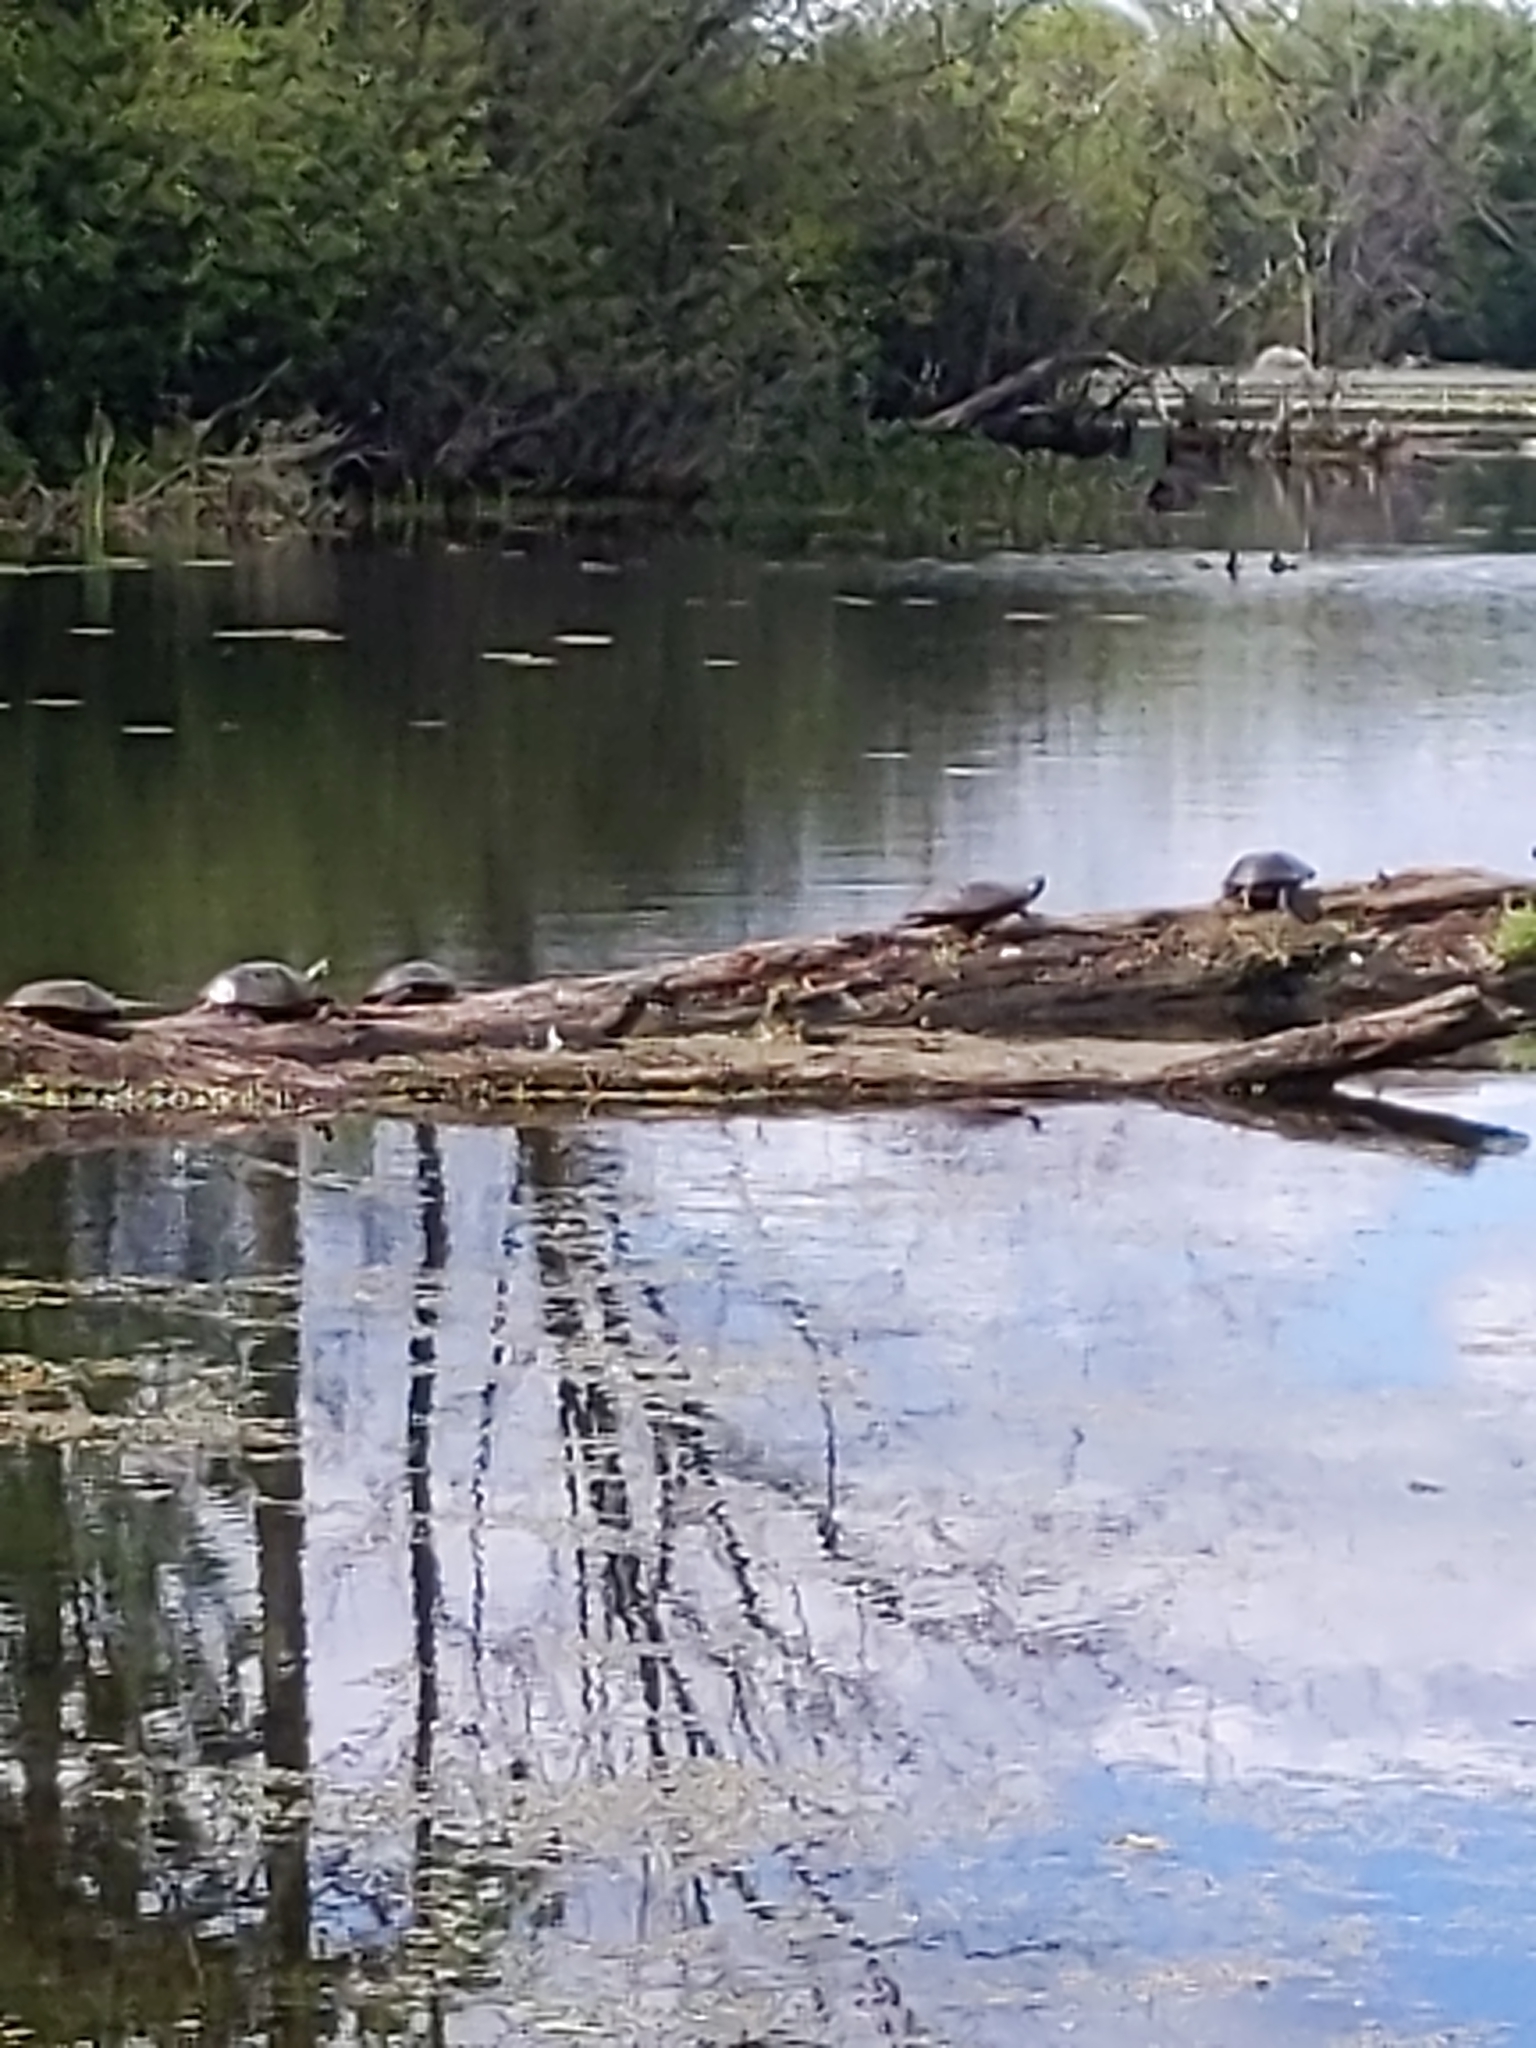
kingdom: Animalia
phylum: Chordata
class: Testudines
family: Emydidae
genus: Chrysemys
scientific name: Chrysemys picta
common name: Painted turtle
